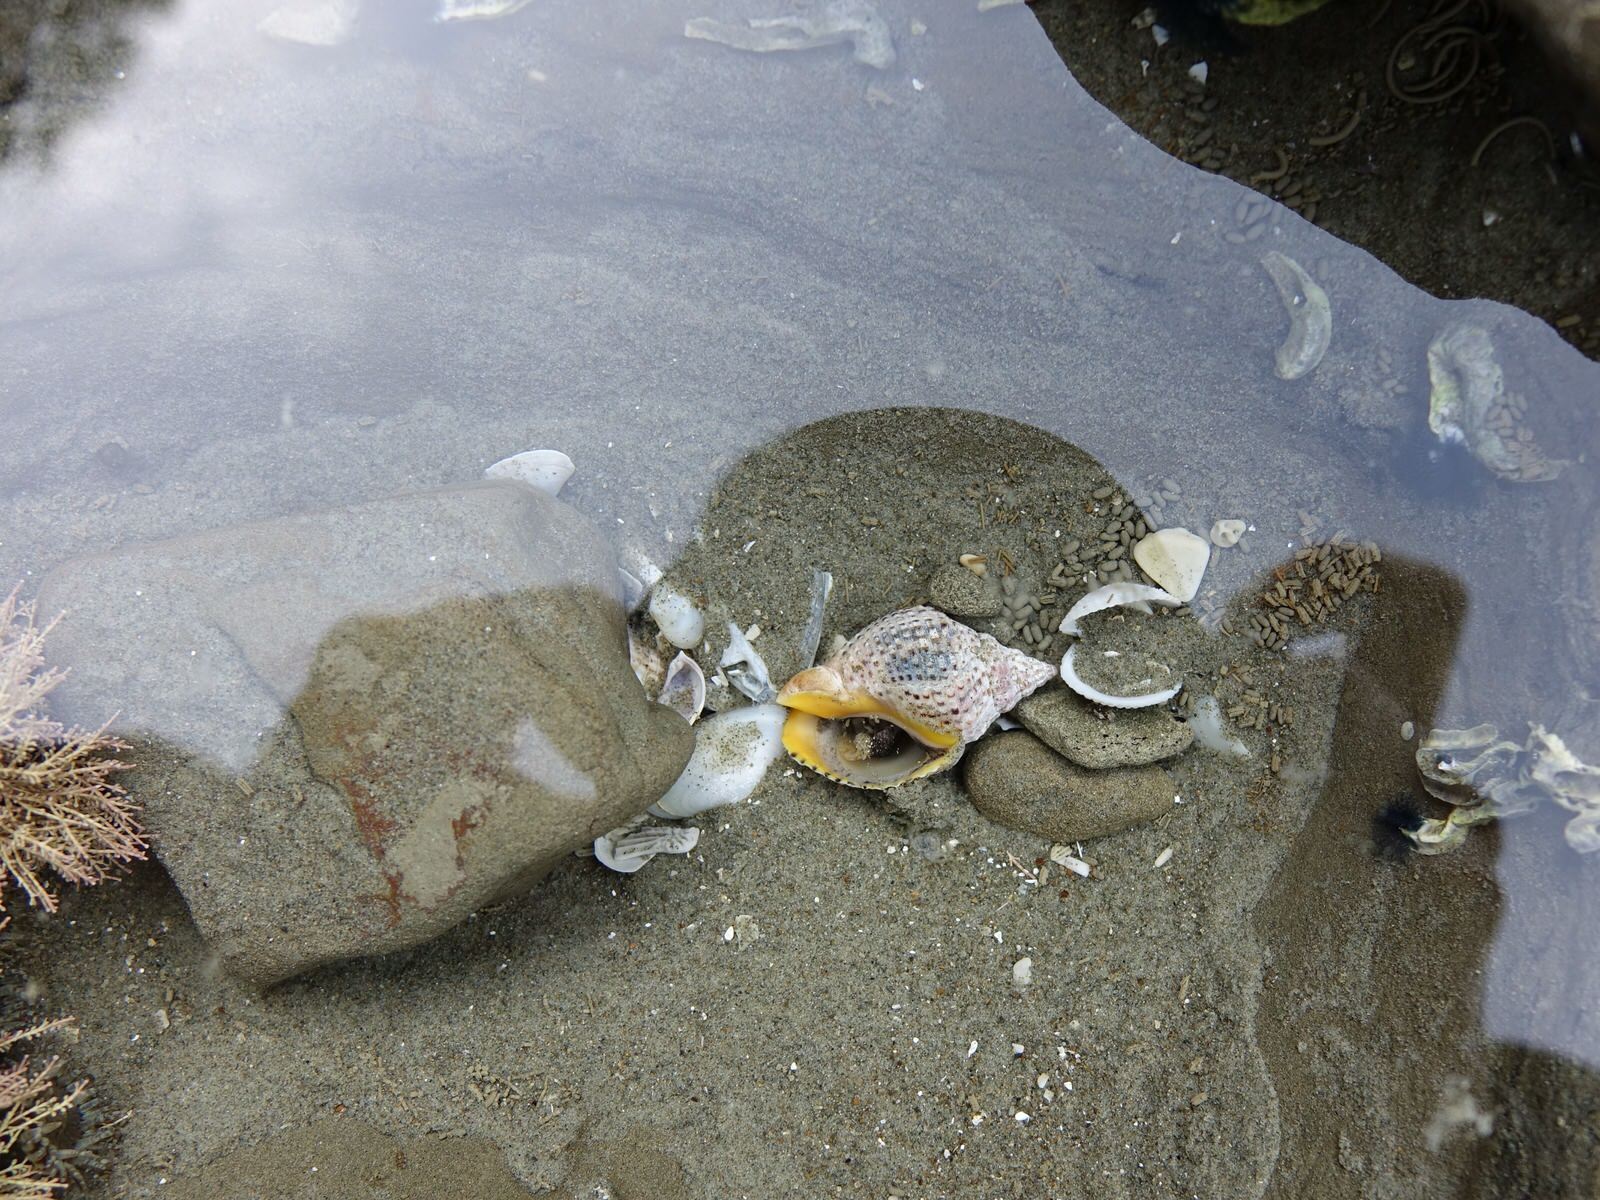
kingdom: Animalia
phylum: Mollusca
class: Gastropoda
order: Neogastropoda
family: Cominellidae
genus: Cominella
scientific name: Cominella adspersa
